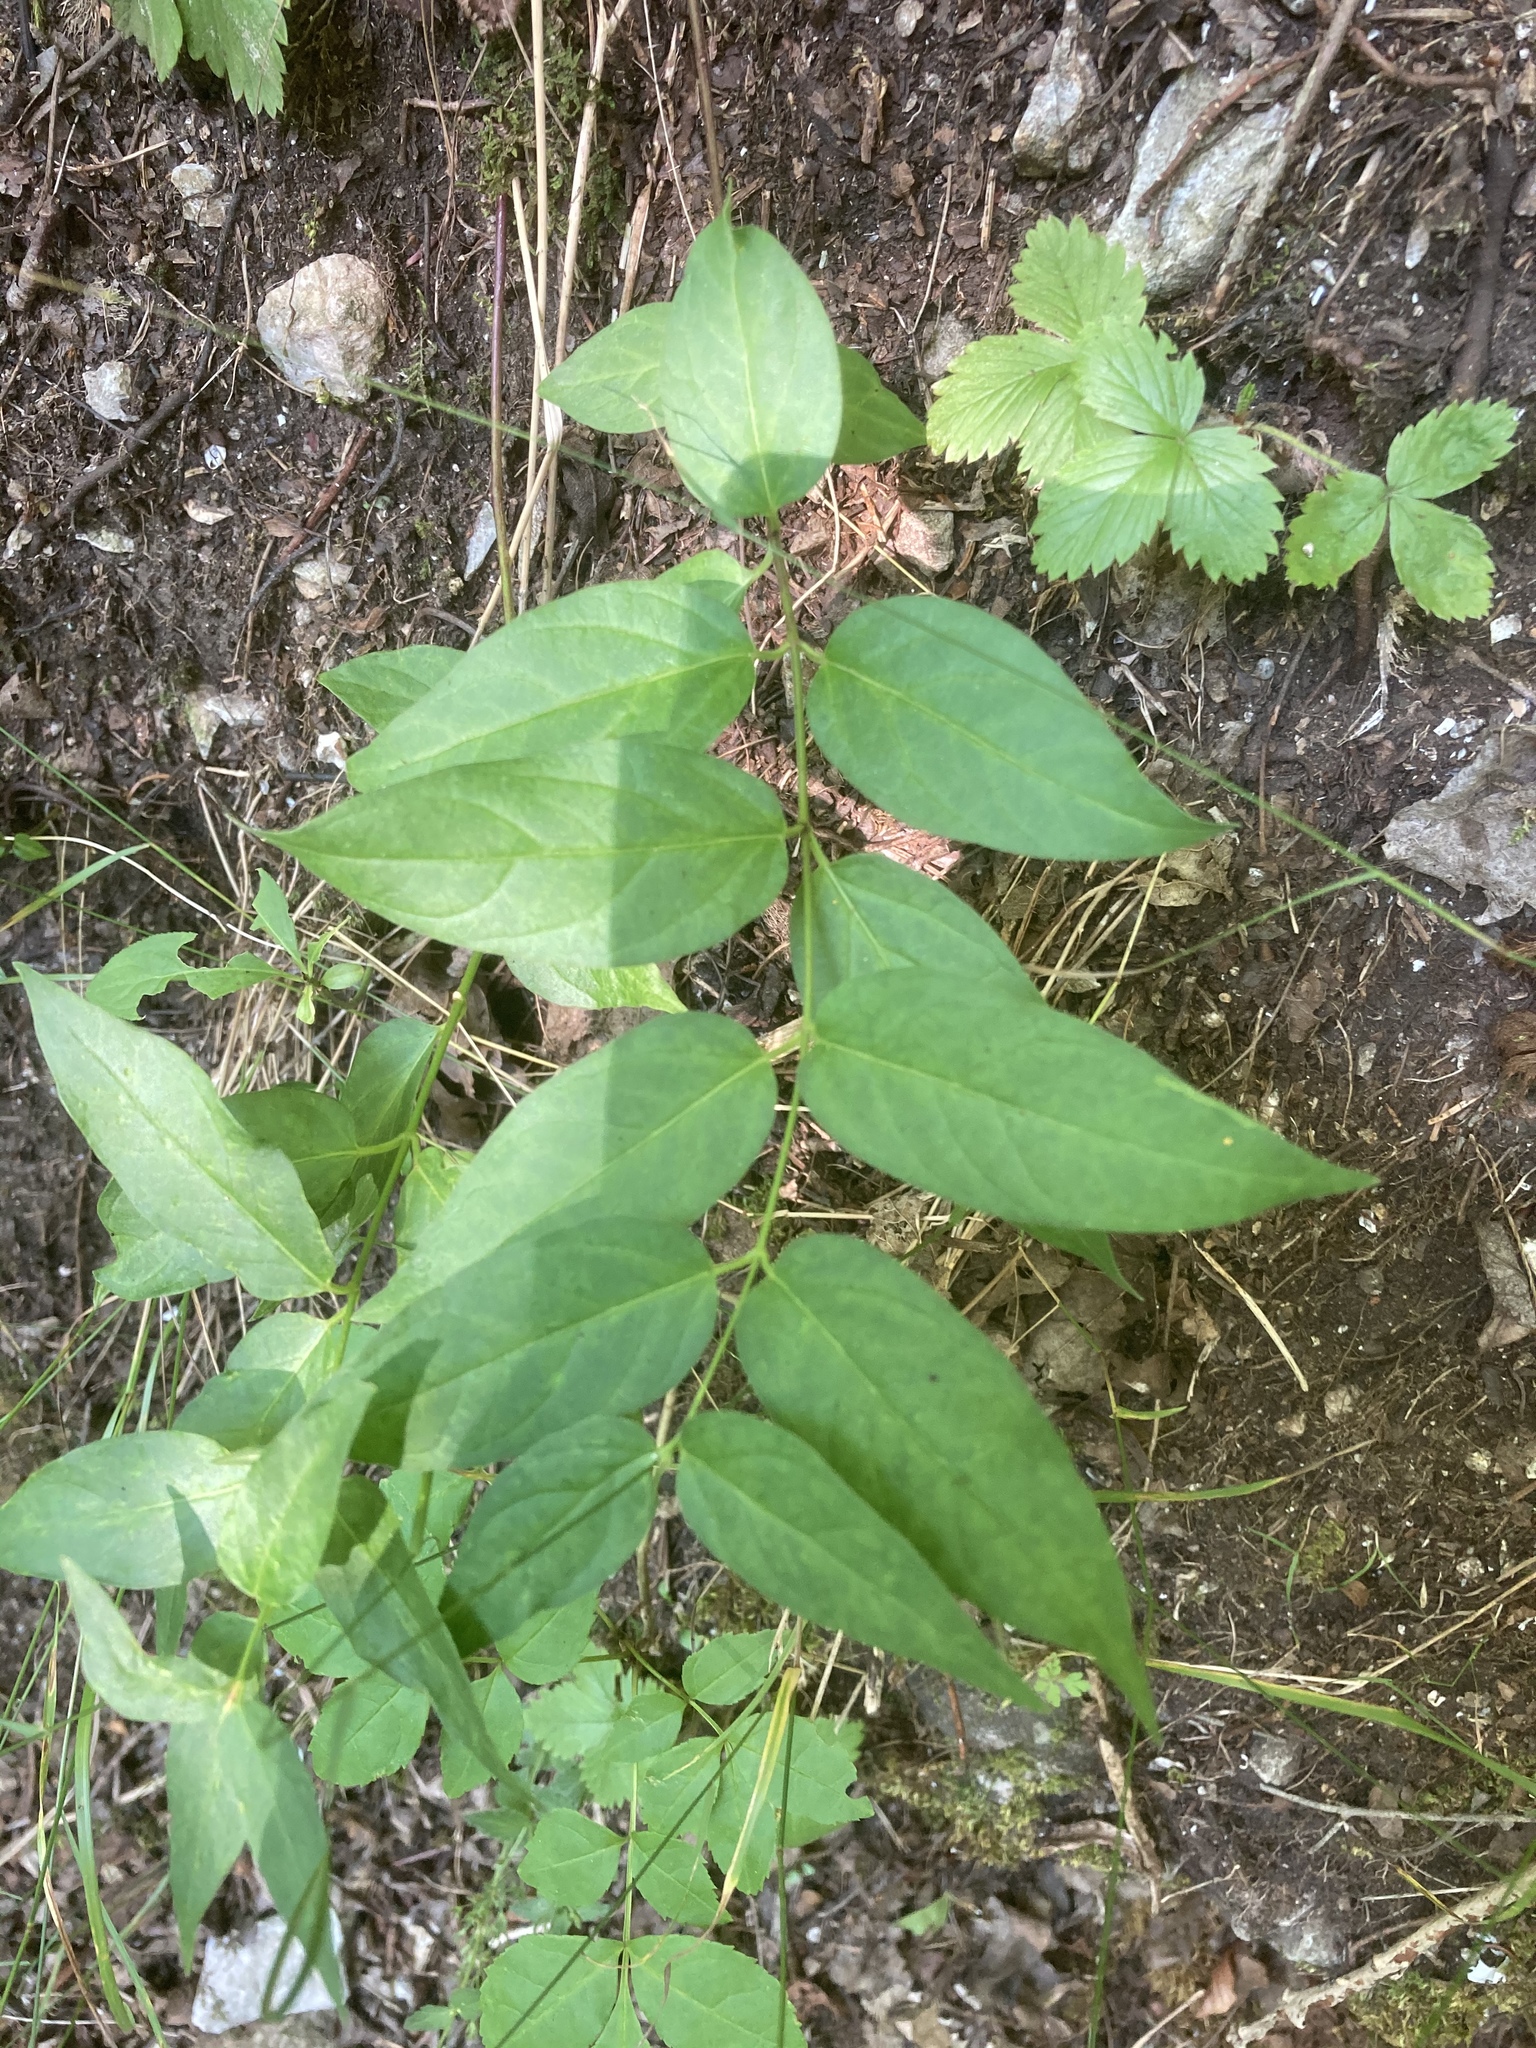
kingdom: Plantae
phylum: Tracheophyta
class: Magnoliopsida
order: Gentianales
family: Apocynaceae
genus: Vincetoxicum
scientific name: Vincetoxicum hirundinaria
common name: White swallowwort
